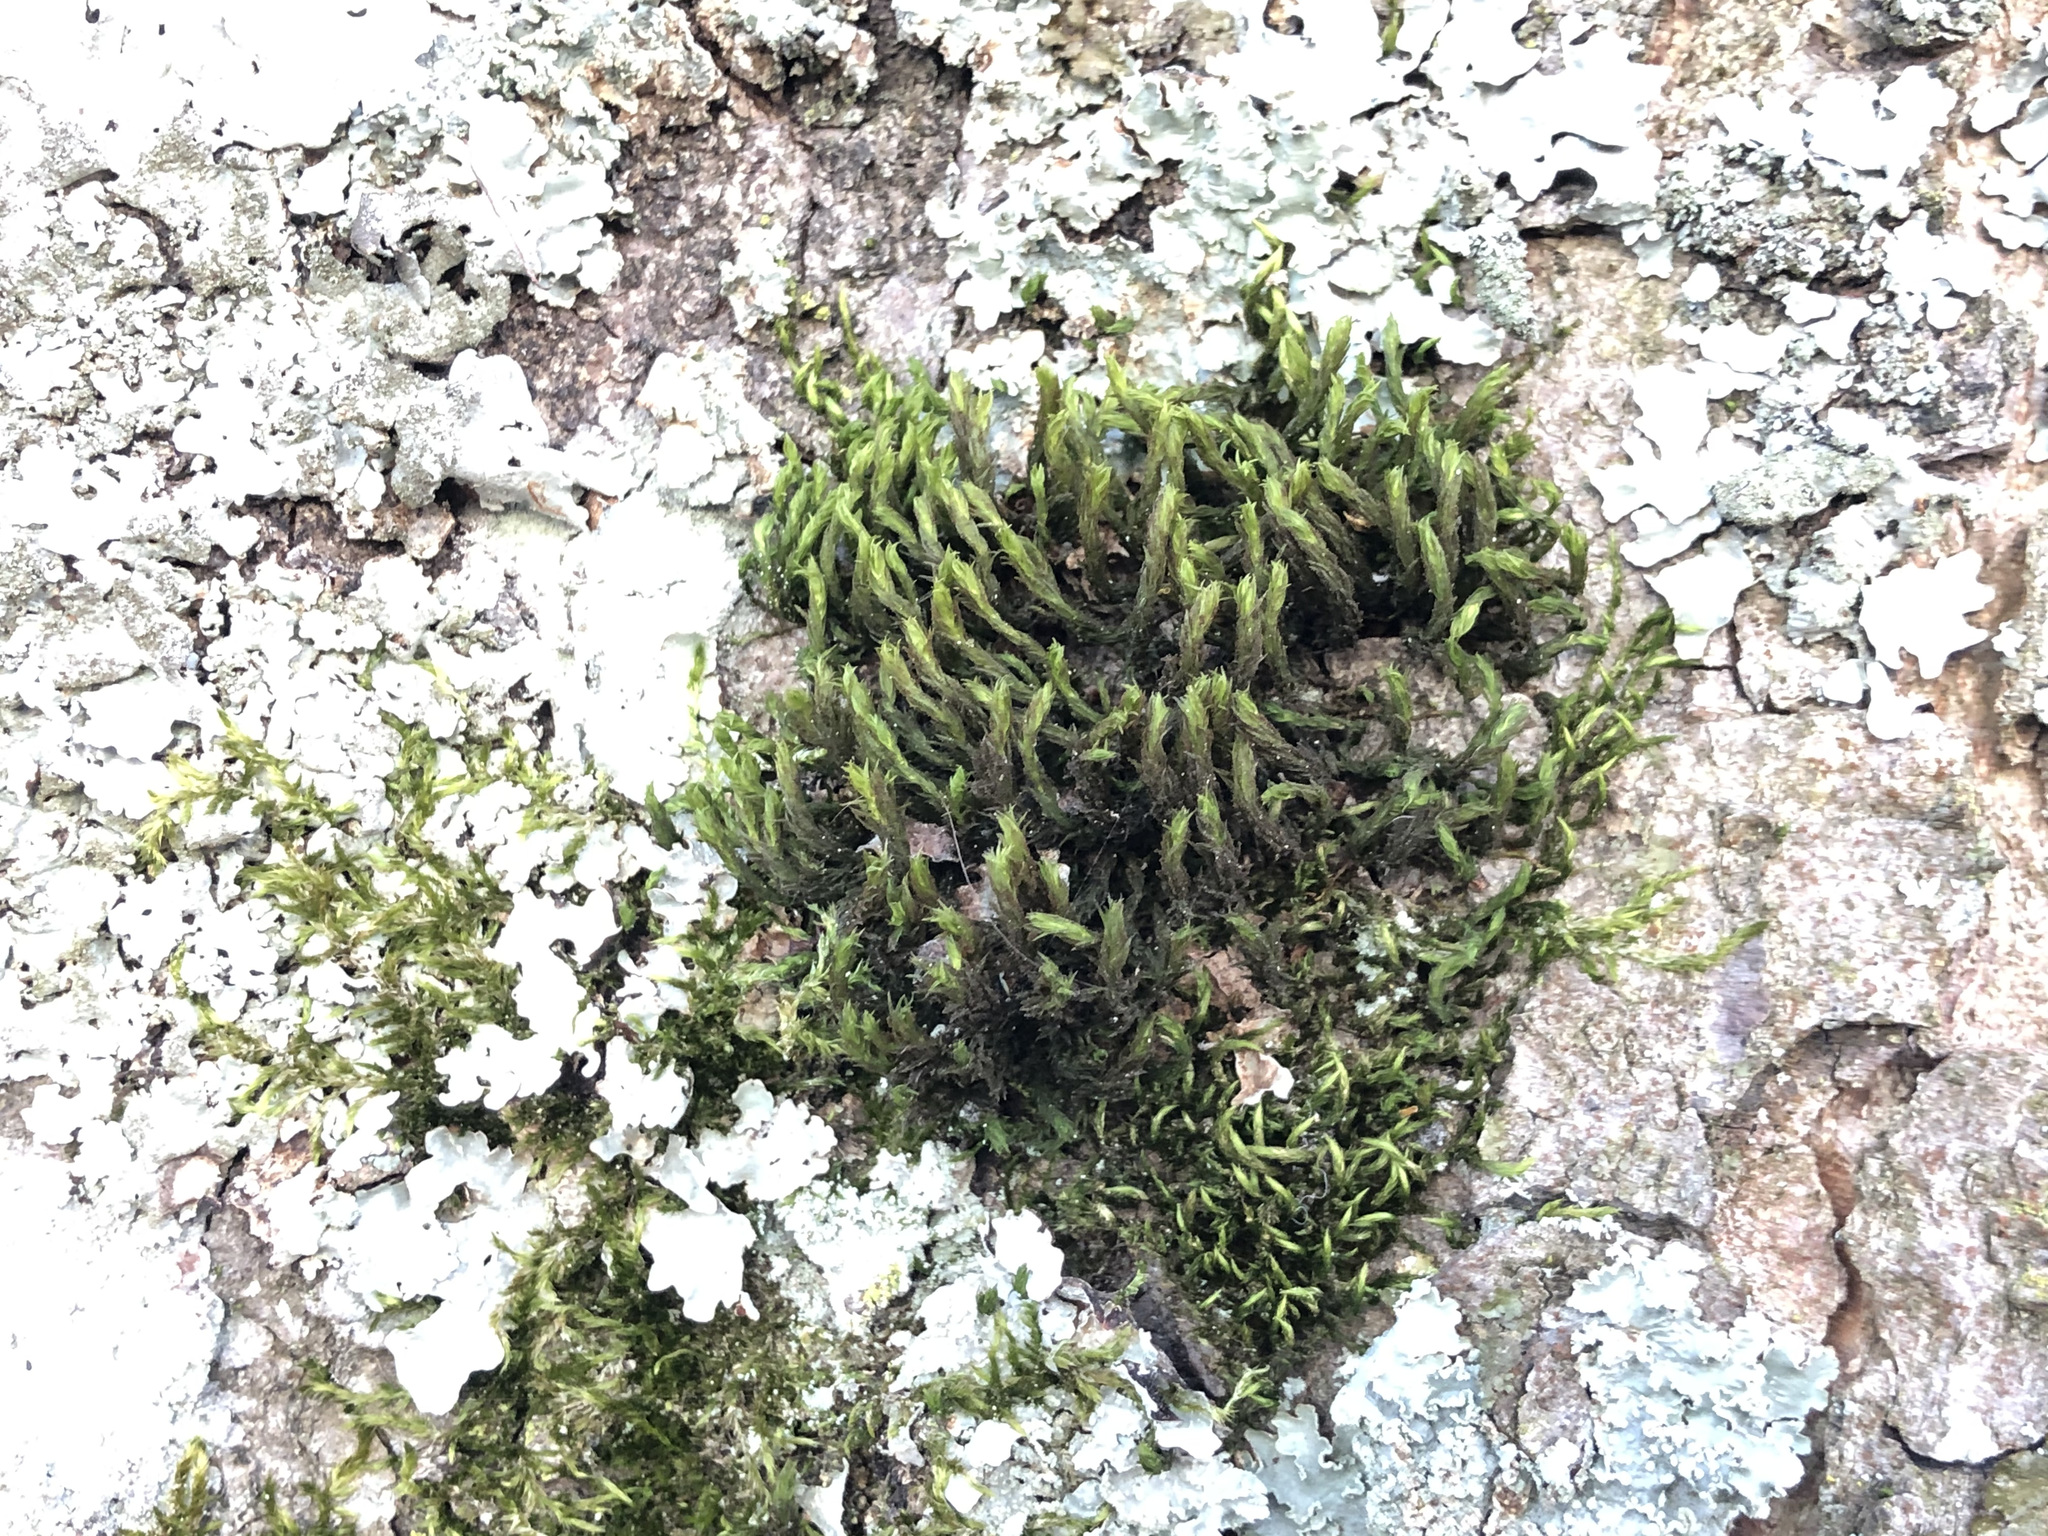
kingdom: Plantae
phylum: Bryophyta
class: Bryopsida
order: Orthotrichales
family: Orthotrichaceae
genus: Pulvigera
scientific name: Pulvigera lyellii
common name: Lyell's bristle-moss
